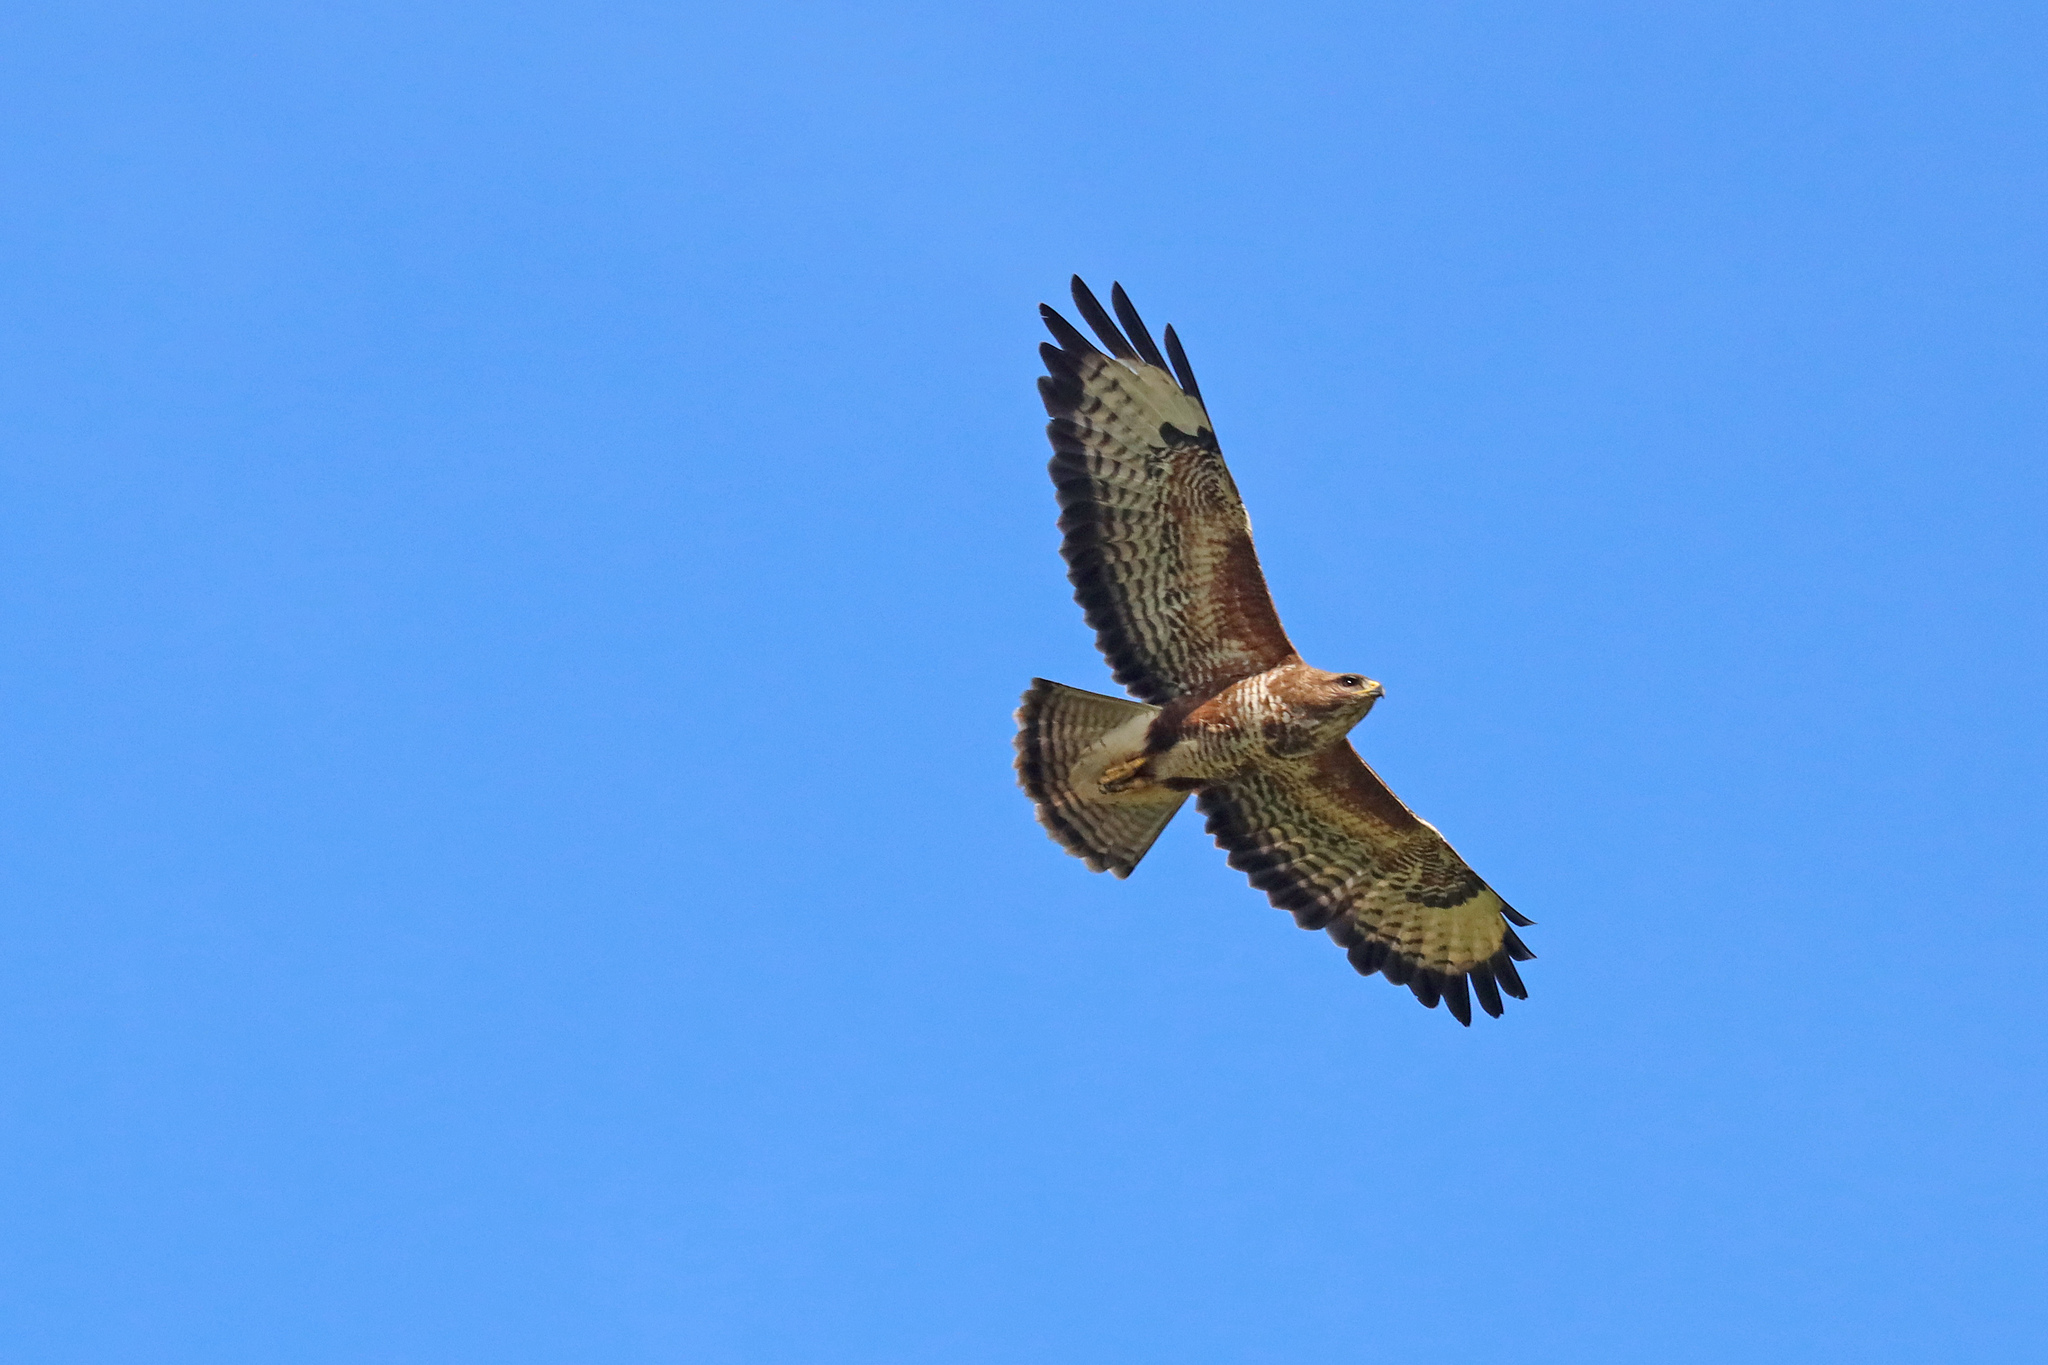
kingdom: Animalia
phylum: Chordata
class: Aves
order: Accipitriformes
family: Accipitridae
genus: Buteo
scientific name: Buteo buteo
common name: Common buzzard
